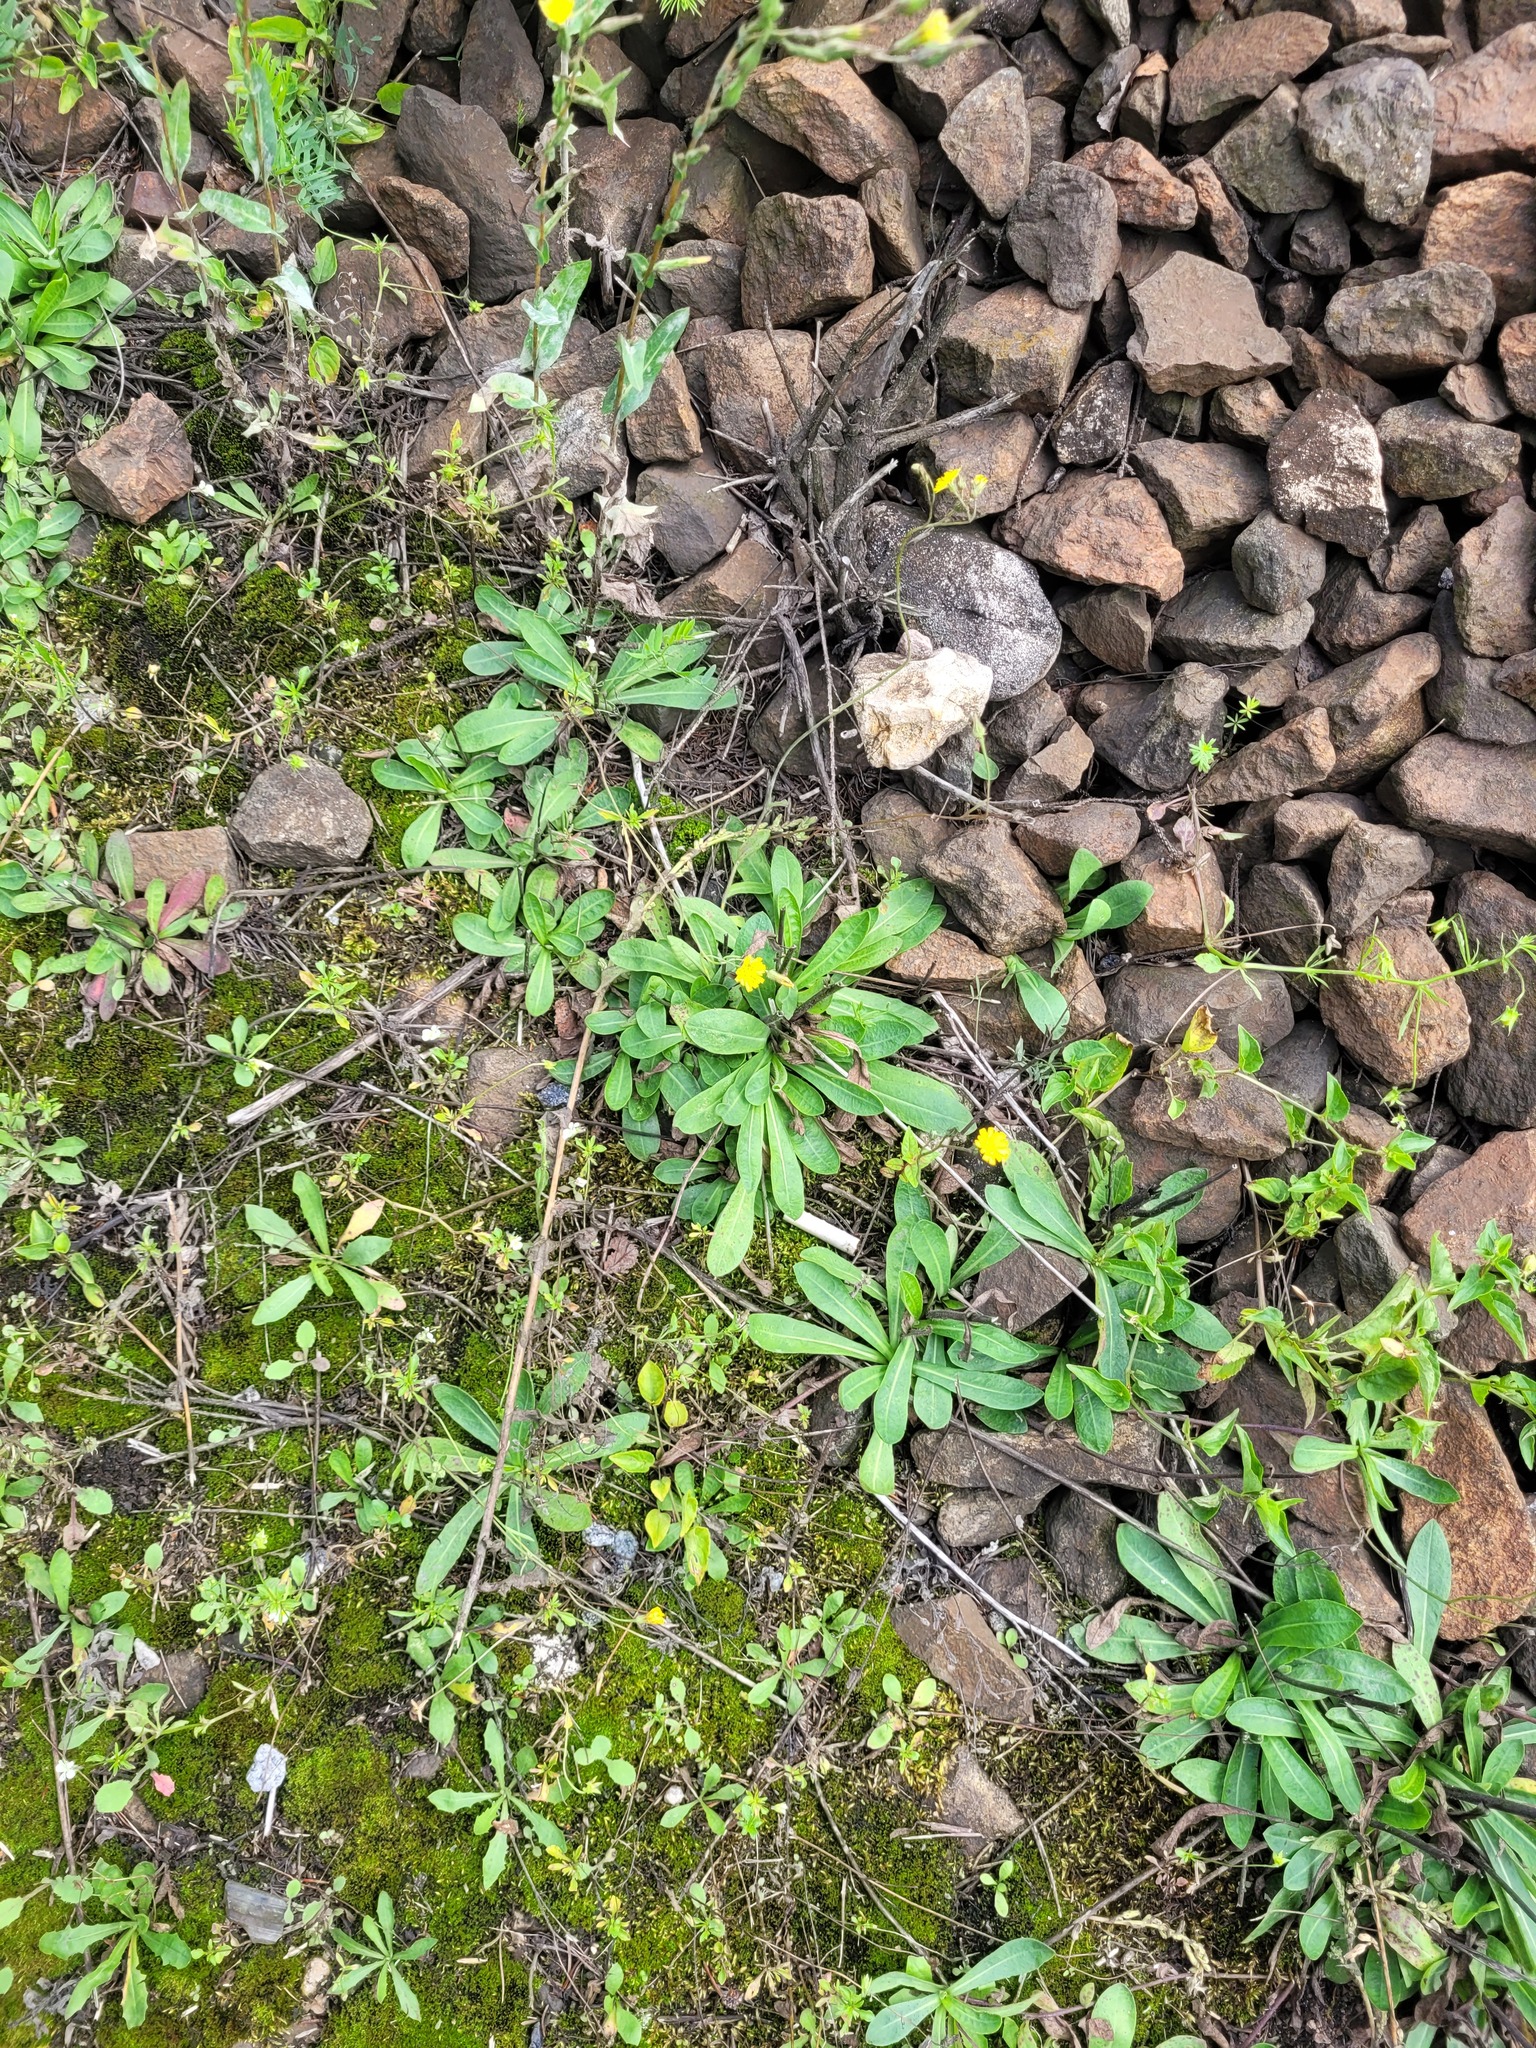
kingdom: Plantae
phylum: Tracheophyta
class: Magnoliopsida
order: Asterales
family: Asteraceae
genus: Pilosella
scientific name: Pilosella
